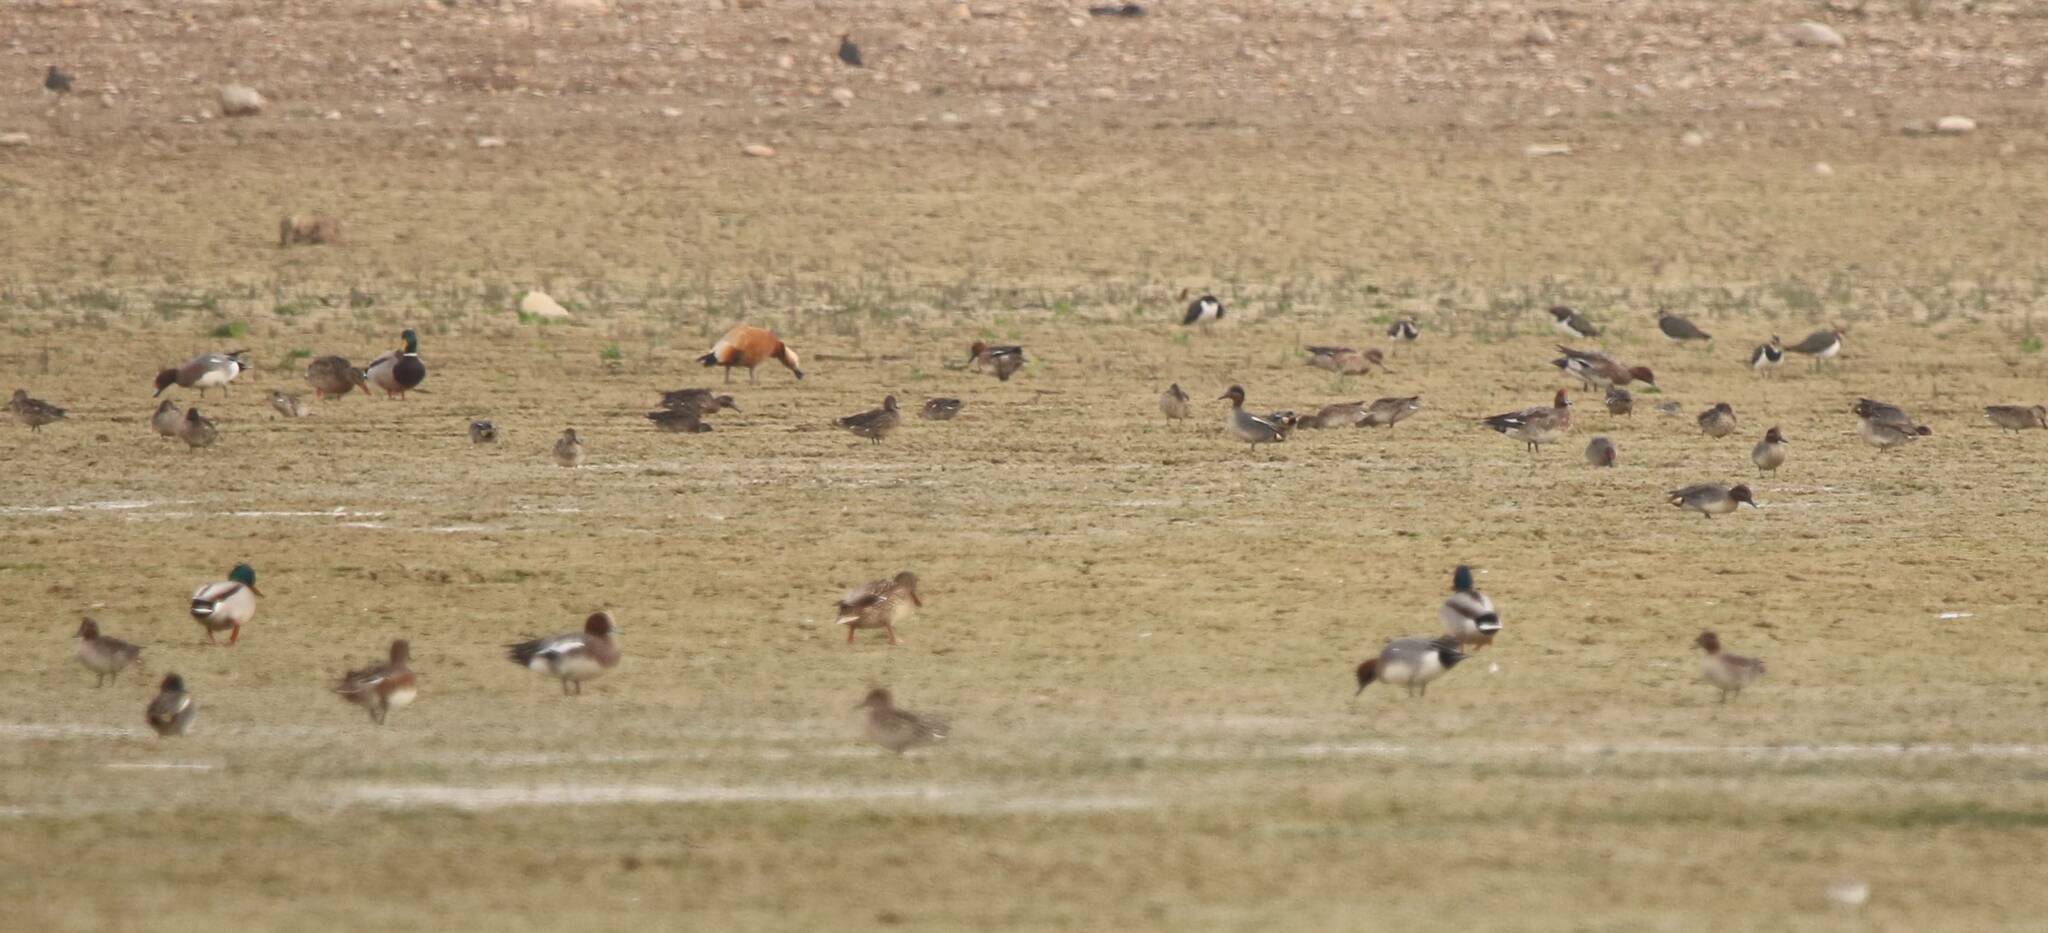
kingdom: Animalia
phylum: Chordata
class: Aves
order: Anseriformes
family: Anatidae
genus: Tadorna
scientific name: Tadorna ferruginea
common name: Ruddy shelduck
